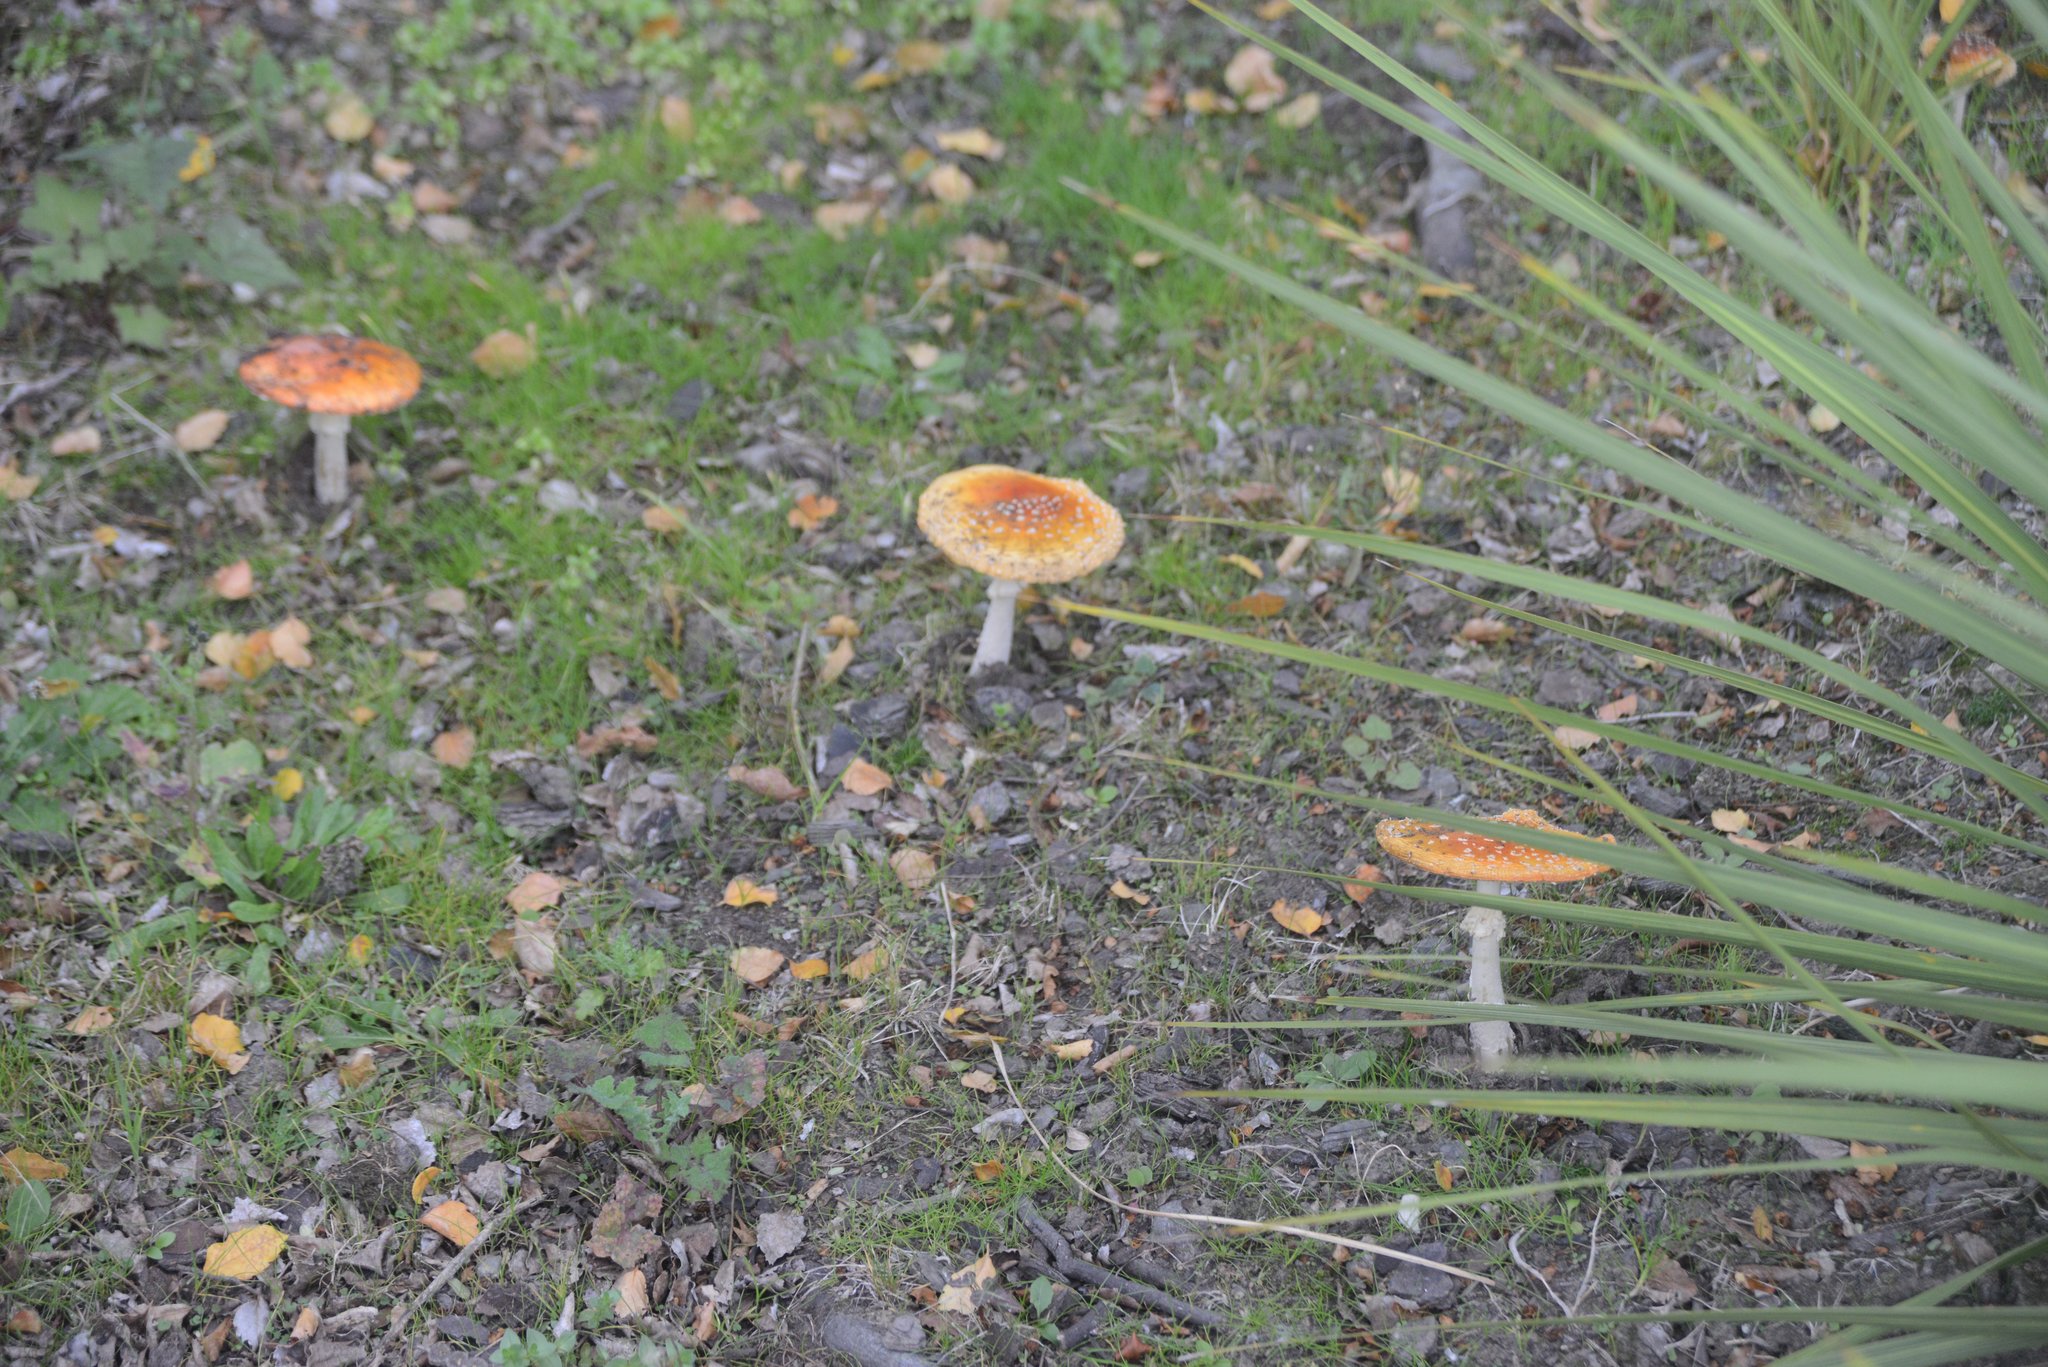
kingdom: Fungi
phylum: Basidiomycota
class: Agaricomycetes
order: Agaricales
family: Amanitaceae
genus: Amanita
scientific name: Amanita muscaria
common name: Fly agaric
